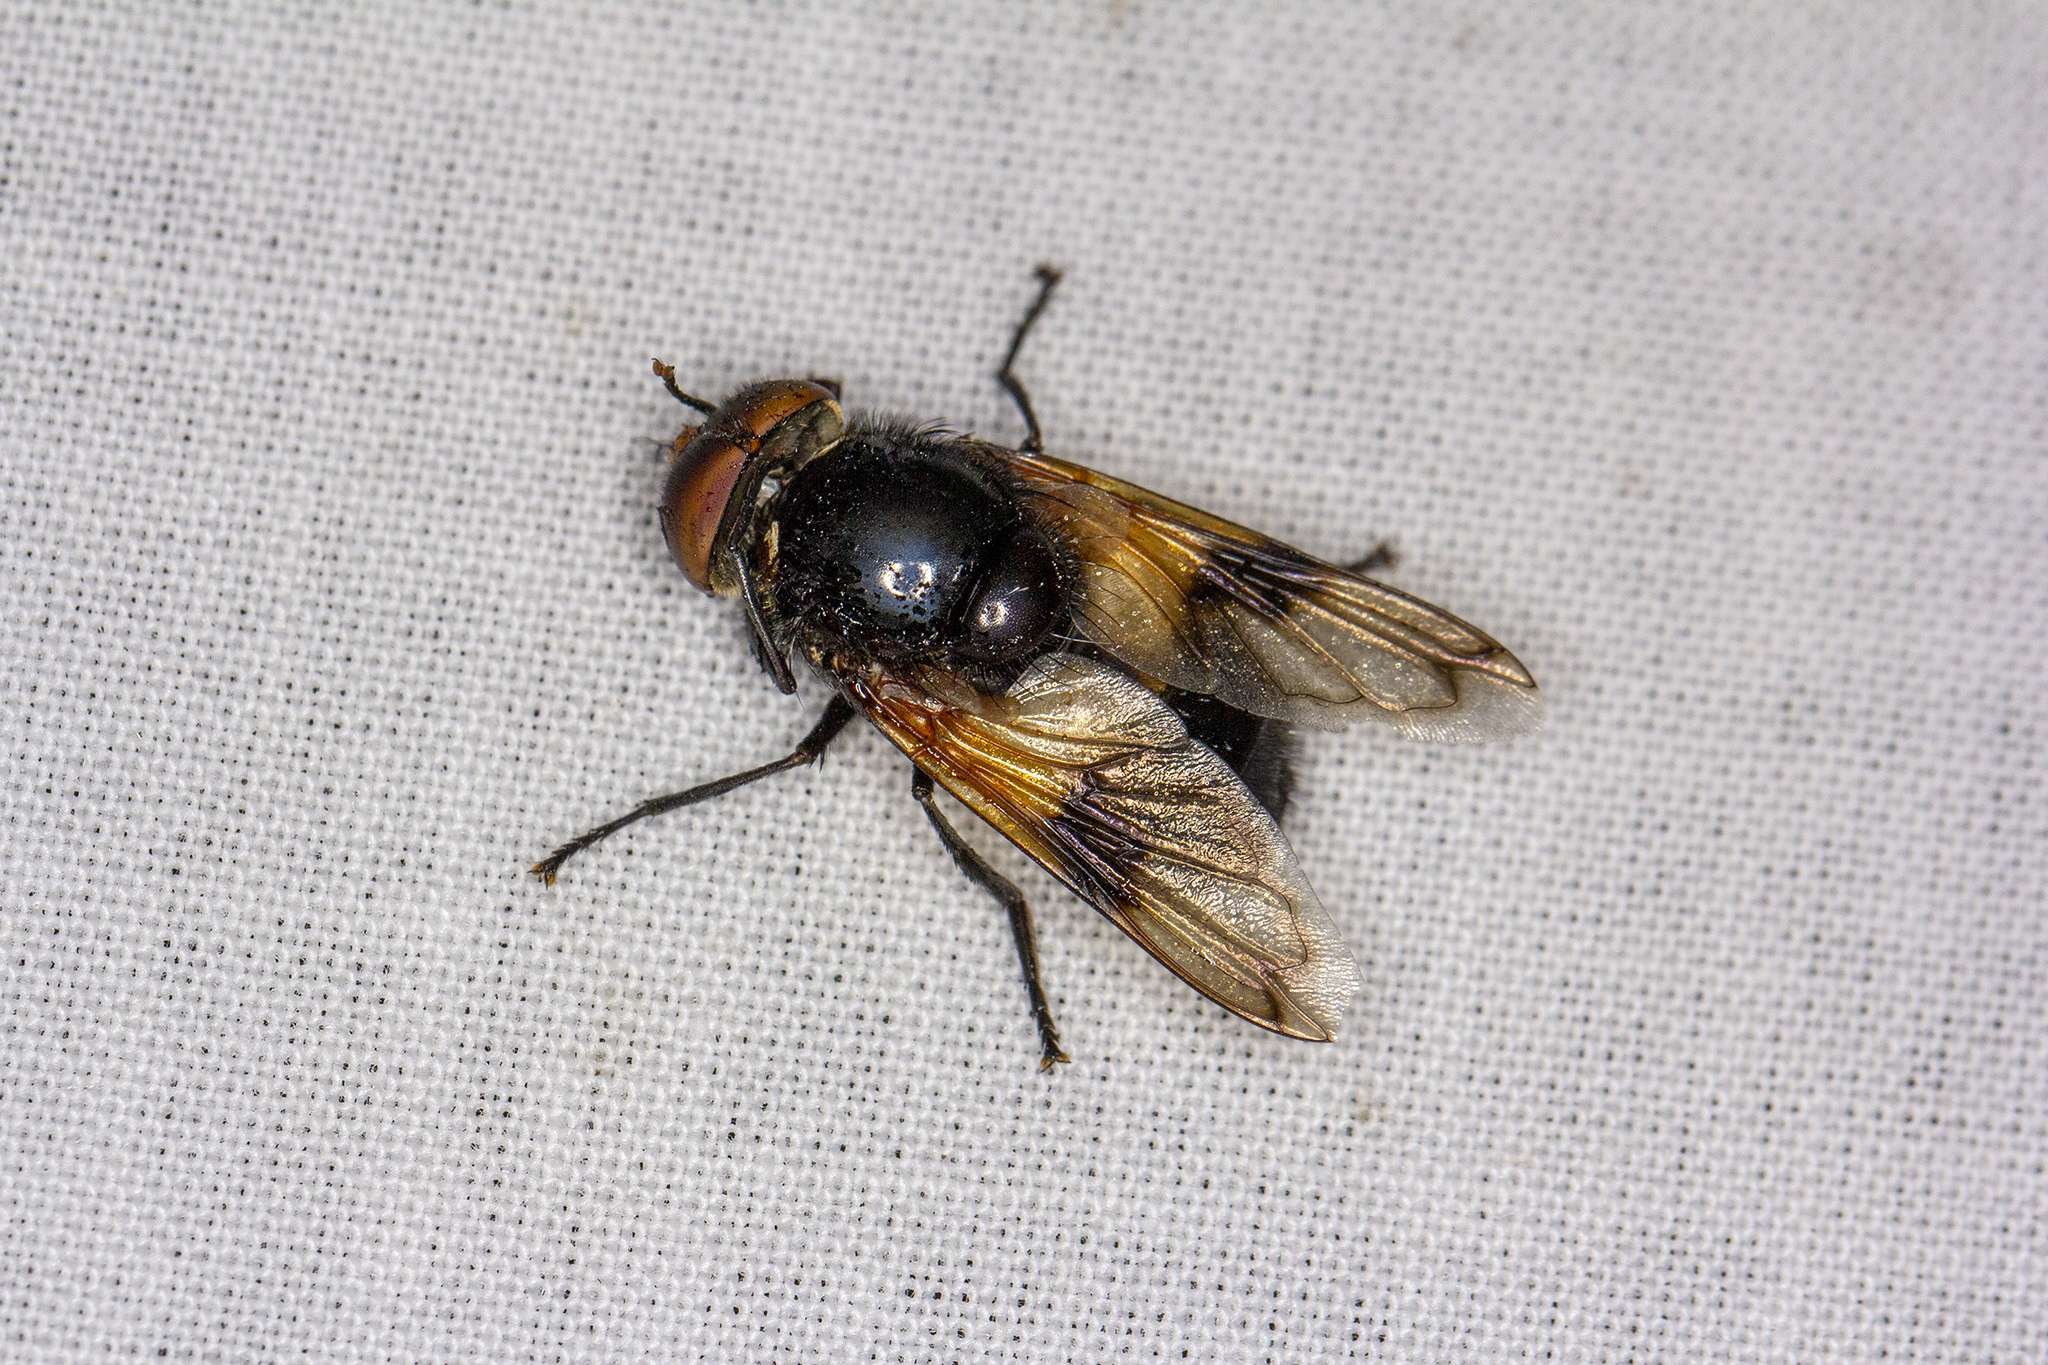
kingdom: Animalia
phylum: Arthropoda
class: Insecta
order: Diptera
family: Syrphidae
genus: Volucella
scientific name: Volucella pellucens
